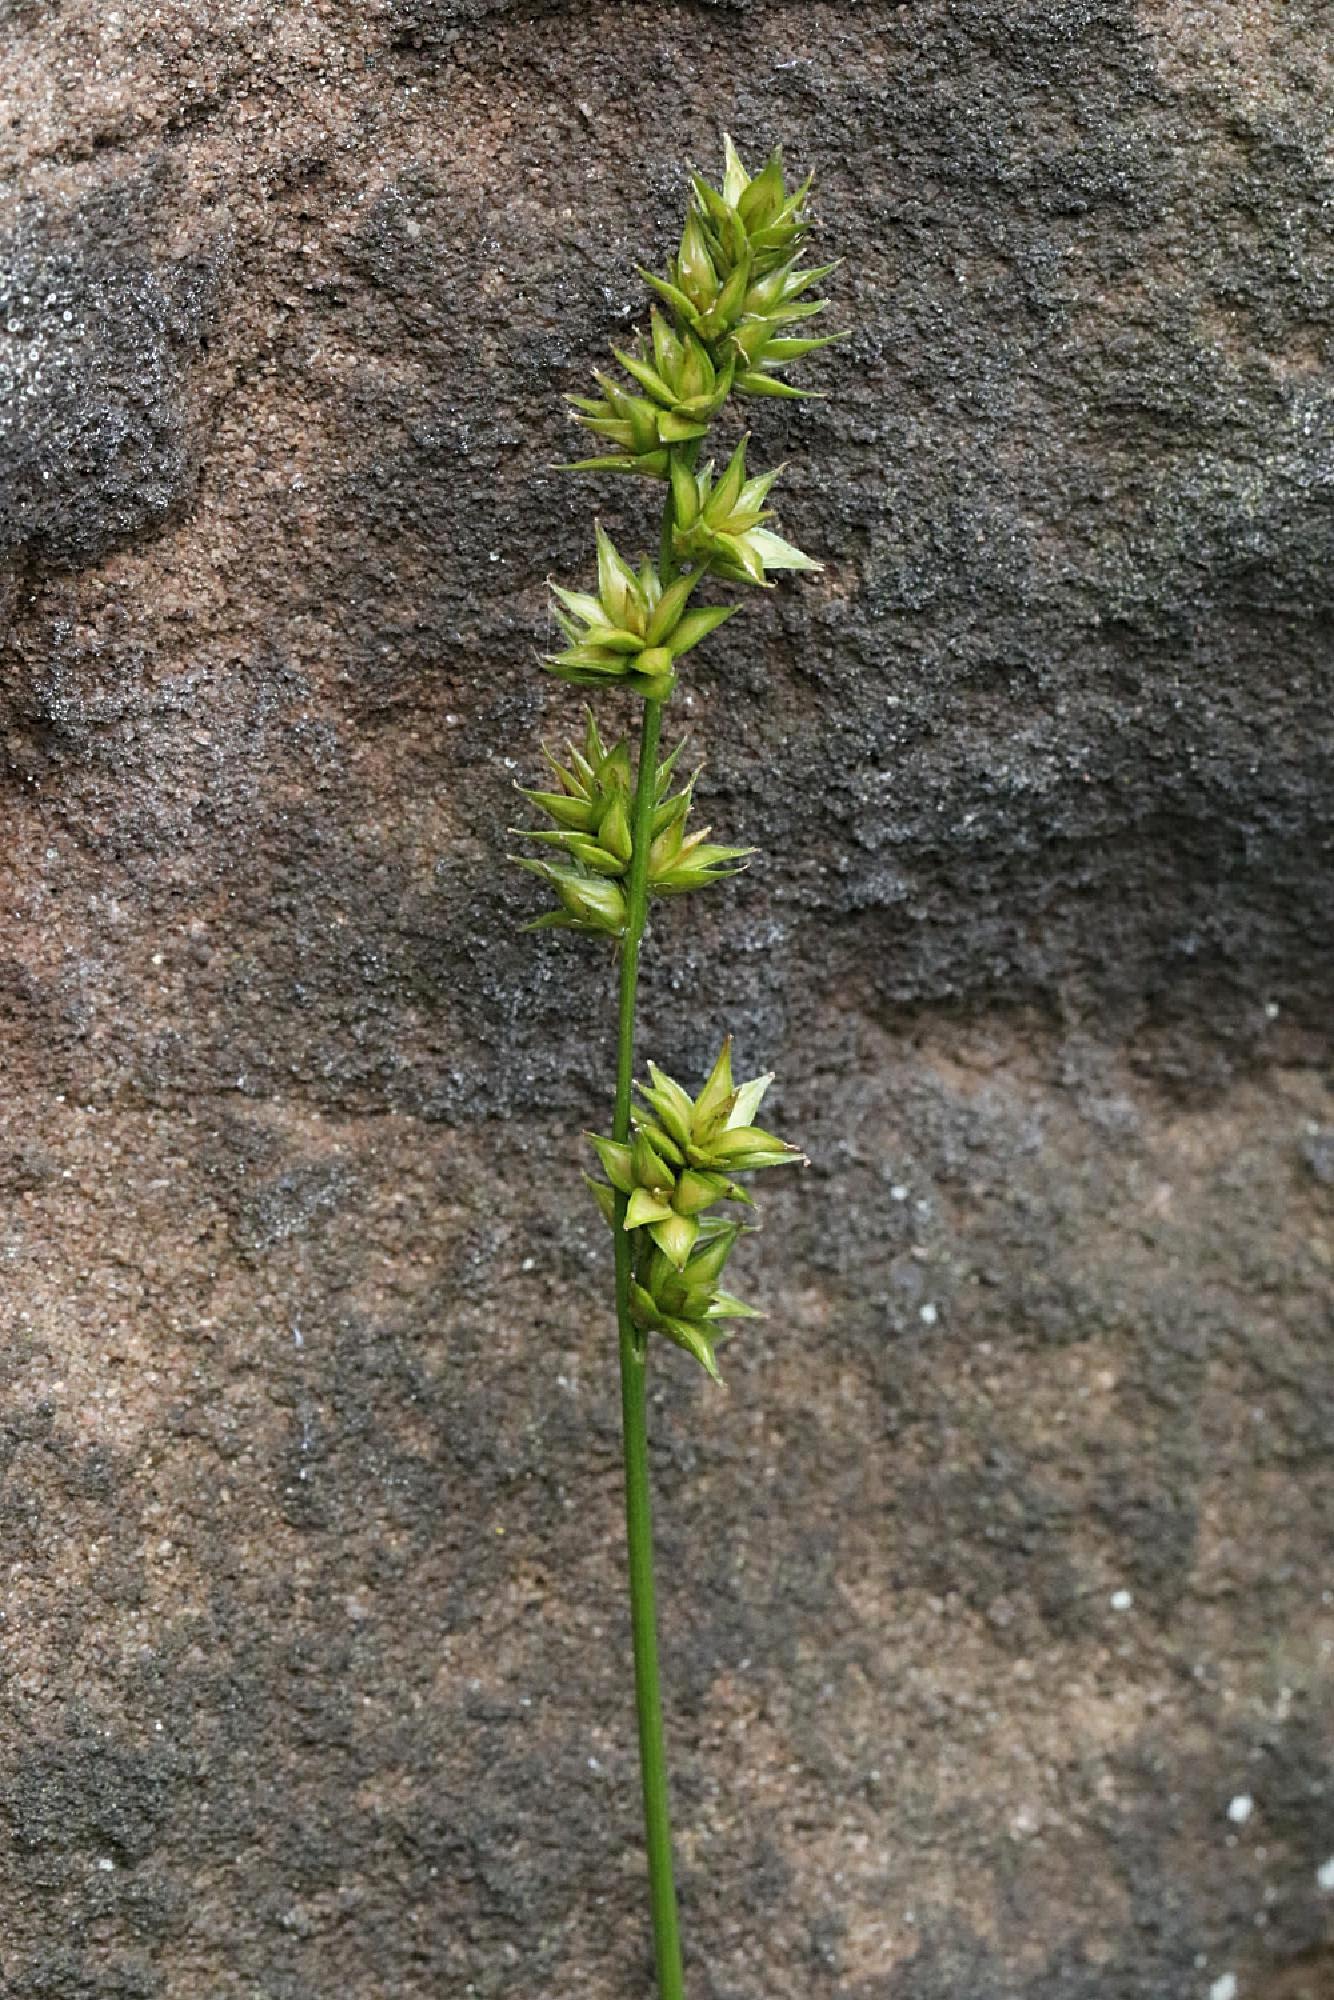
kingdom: Plantae
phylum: Tracheophyta
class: Liliopsida
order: Poales
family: Cyperaceae
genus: Carex
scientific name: Carex divulsa
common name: Grassland sedge
